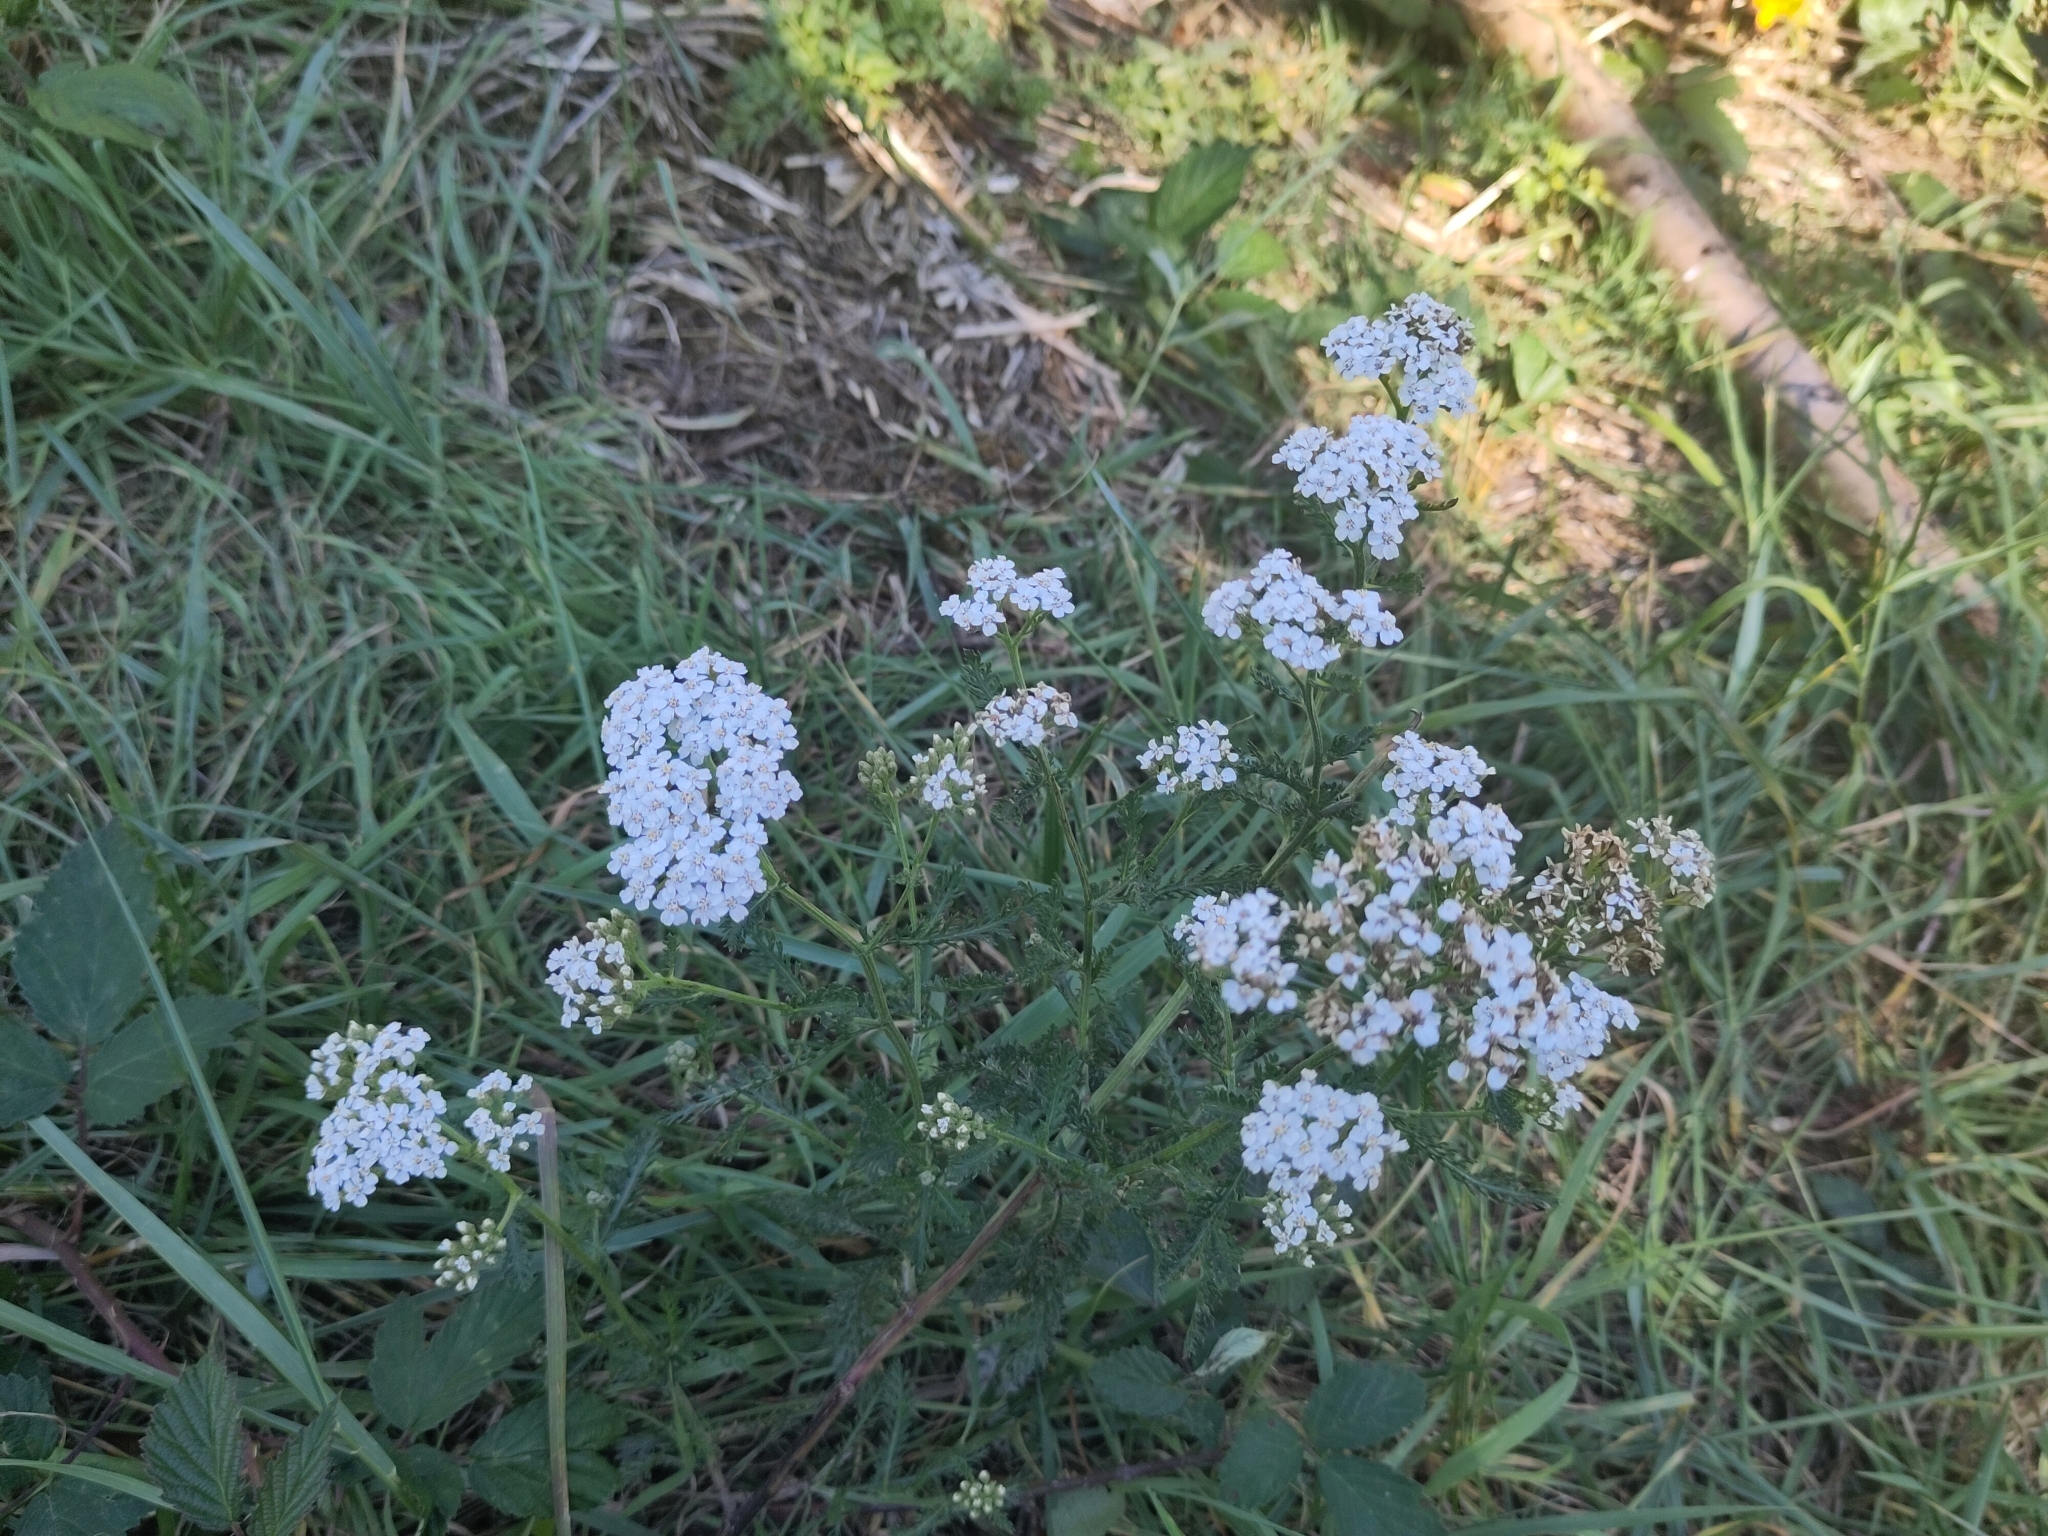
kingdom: Plantae
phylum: Tracheophyta
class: Magnoliopsida
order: Asterales
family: Asteraceae
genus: Achillea
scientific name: Achillea millefolium
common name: Yarrow
